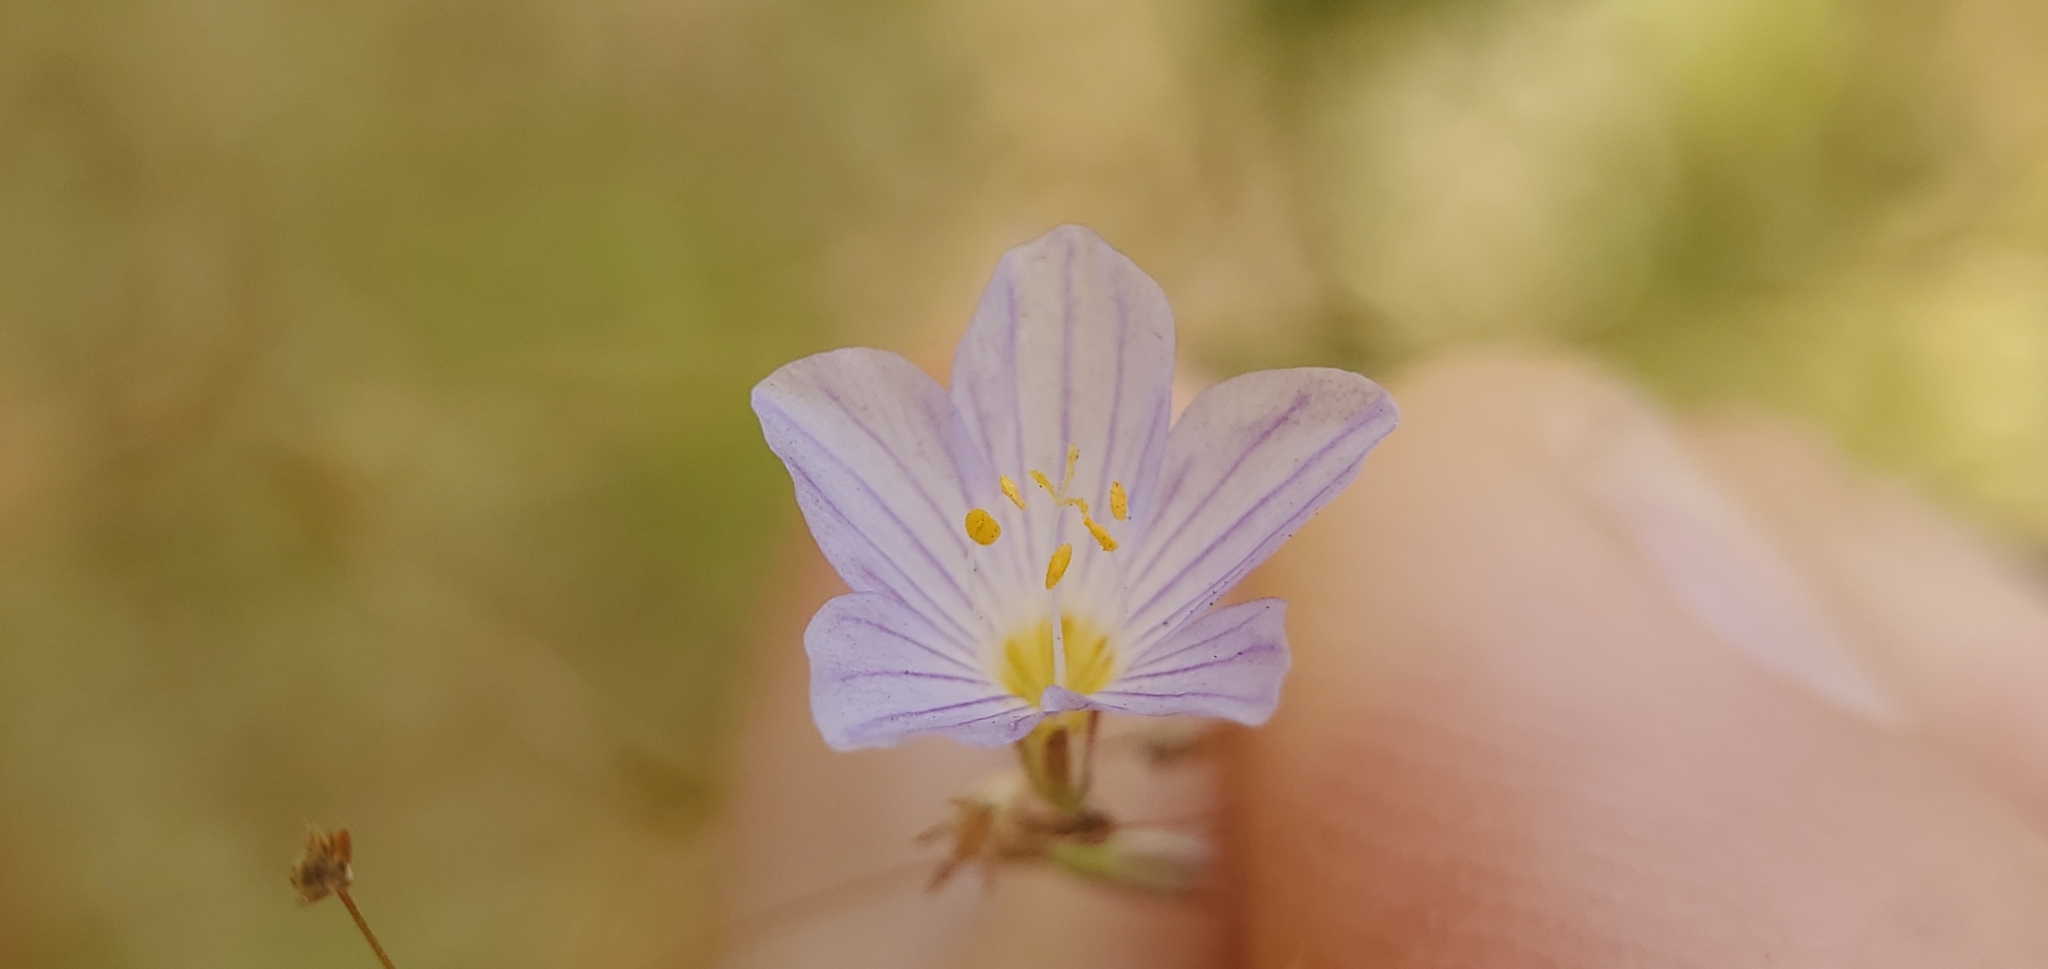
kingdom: Plantae
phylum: Tracheophyta
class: Magnoliopsida
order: Ericales
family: Polemoniaceae
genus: Leptosiphon
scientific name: Leptosiphon liniflorus
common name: Narrowflower flaxflower
